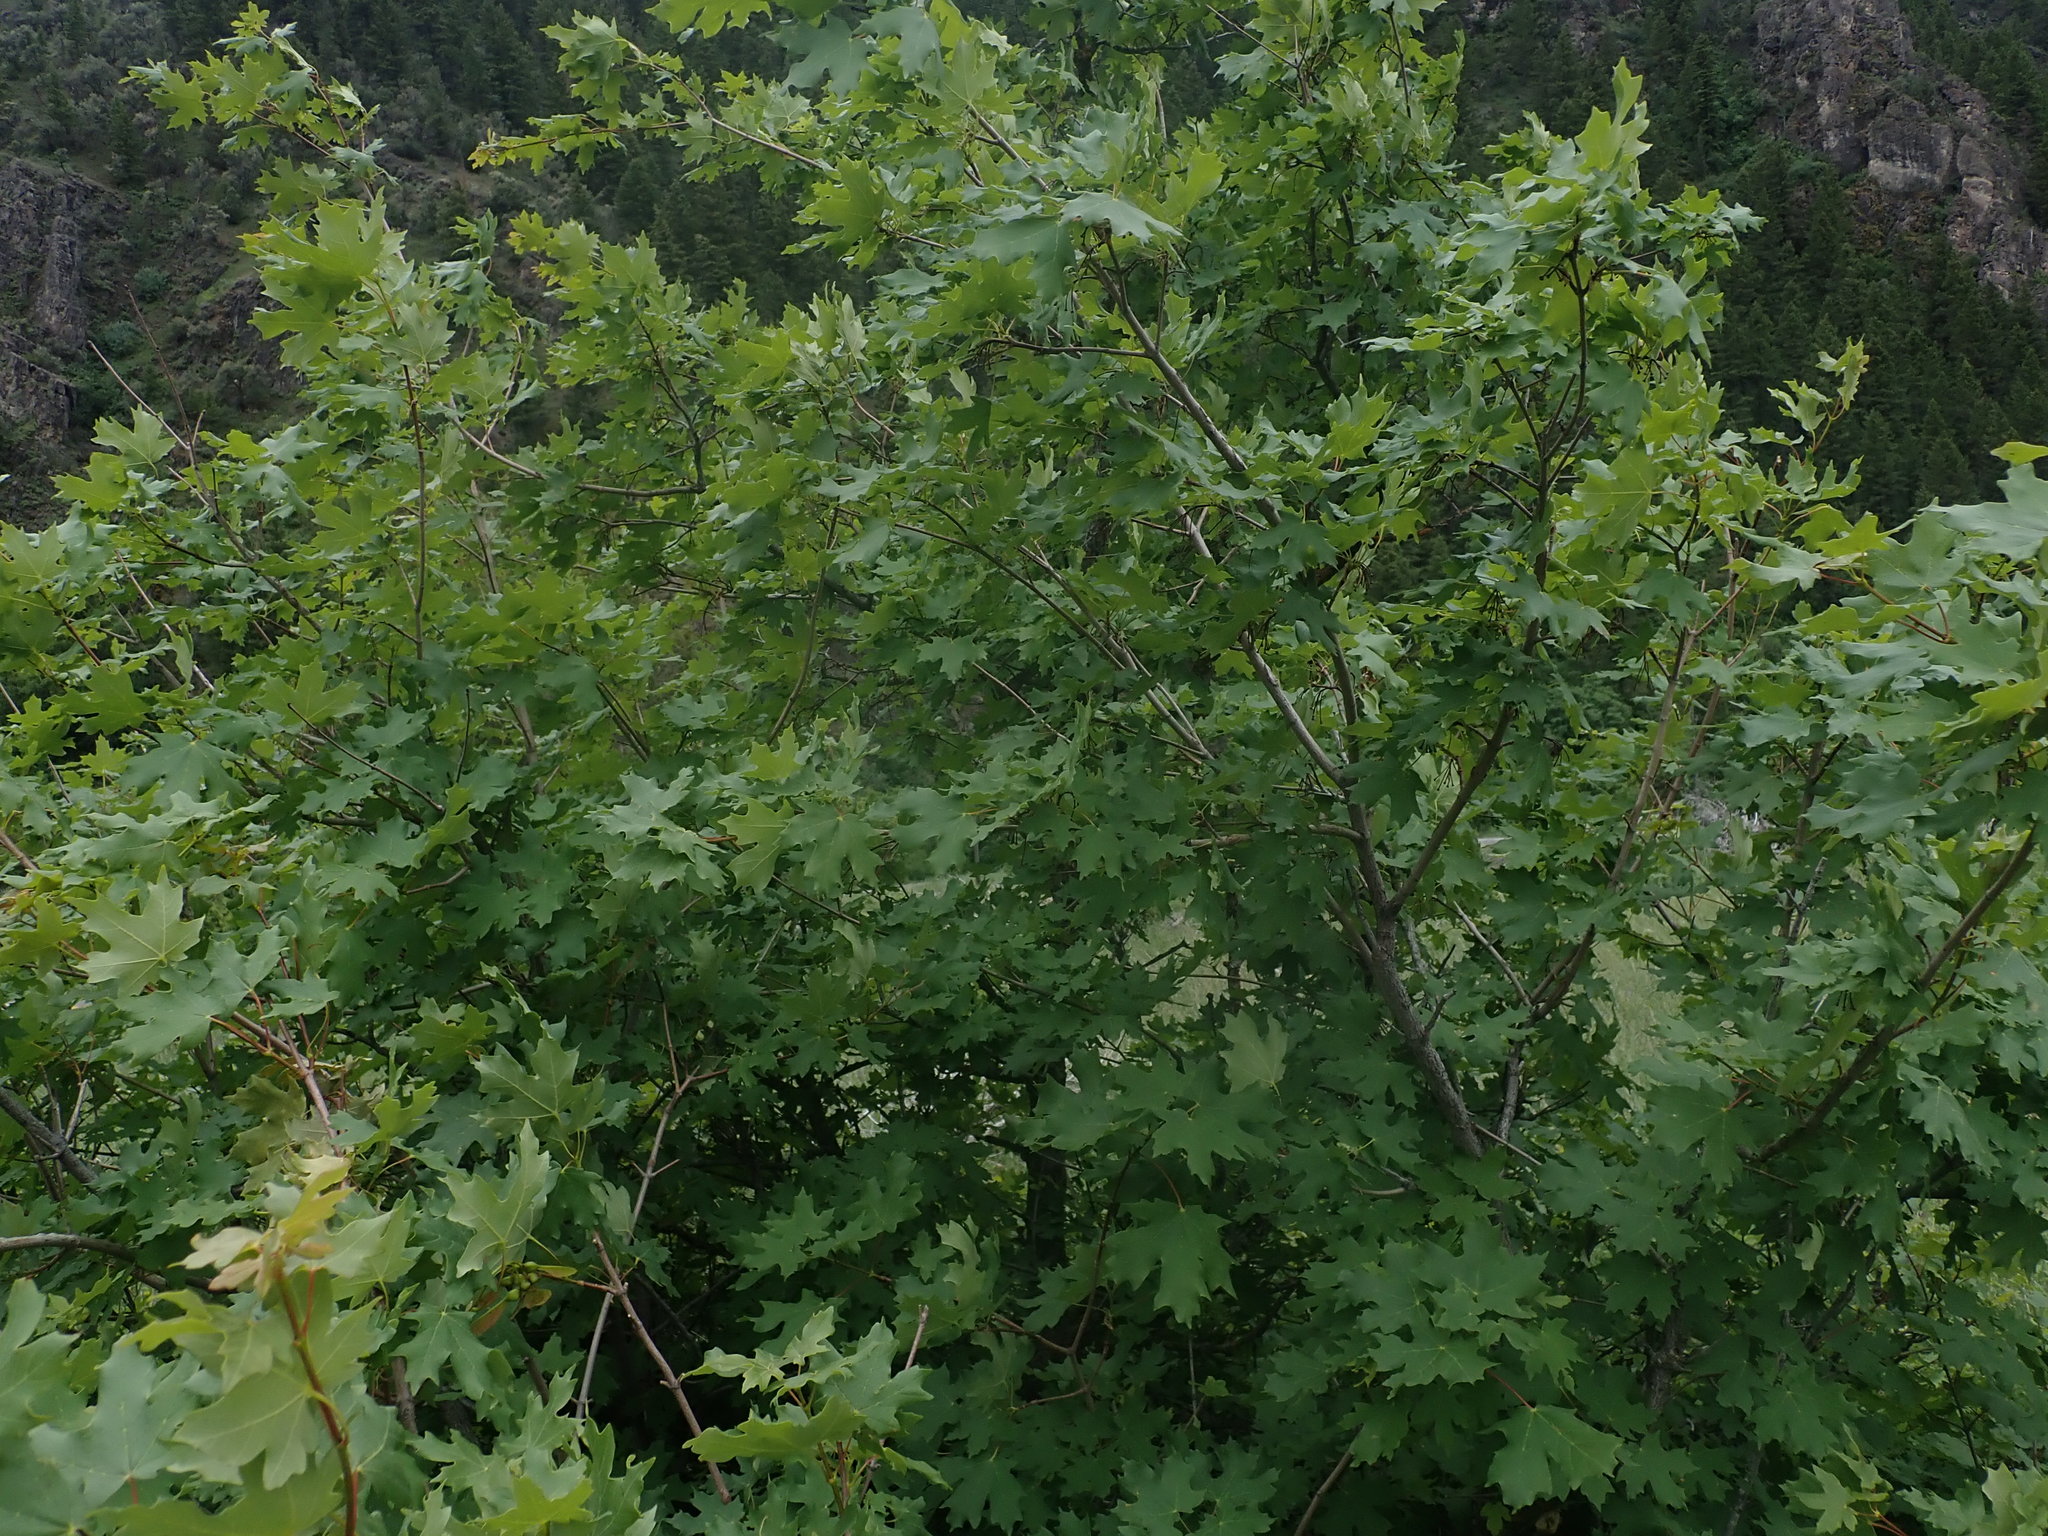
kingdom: Plantae
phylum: Tracheophyta
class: Magnoliopsida
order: Sapindales
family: Sapindaceae
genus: Acer
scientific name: Acer grandidentatum
